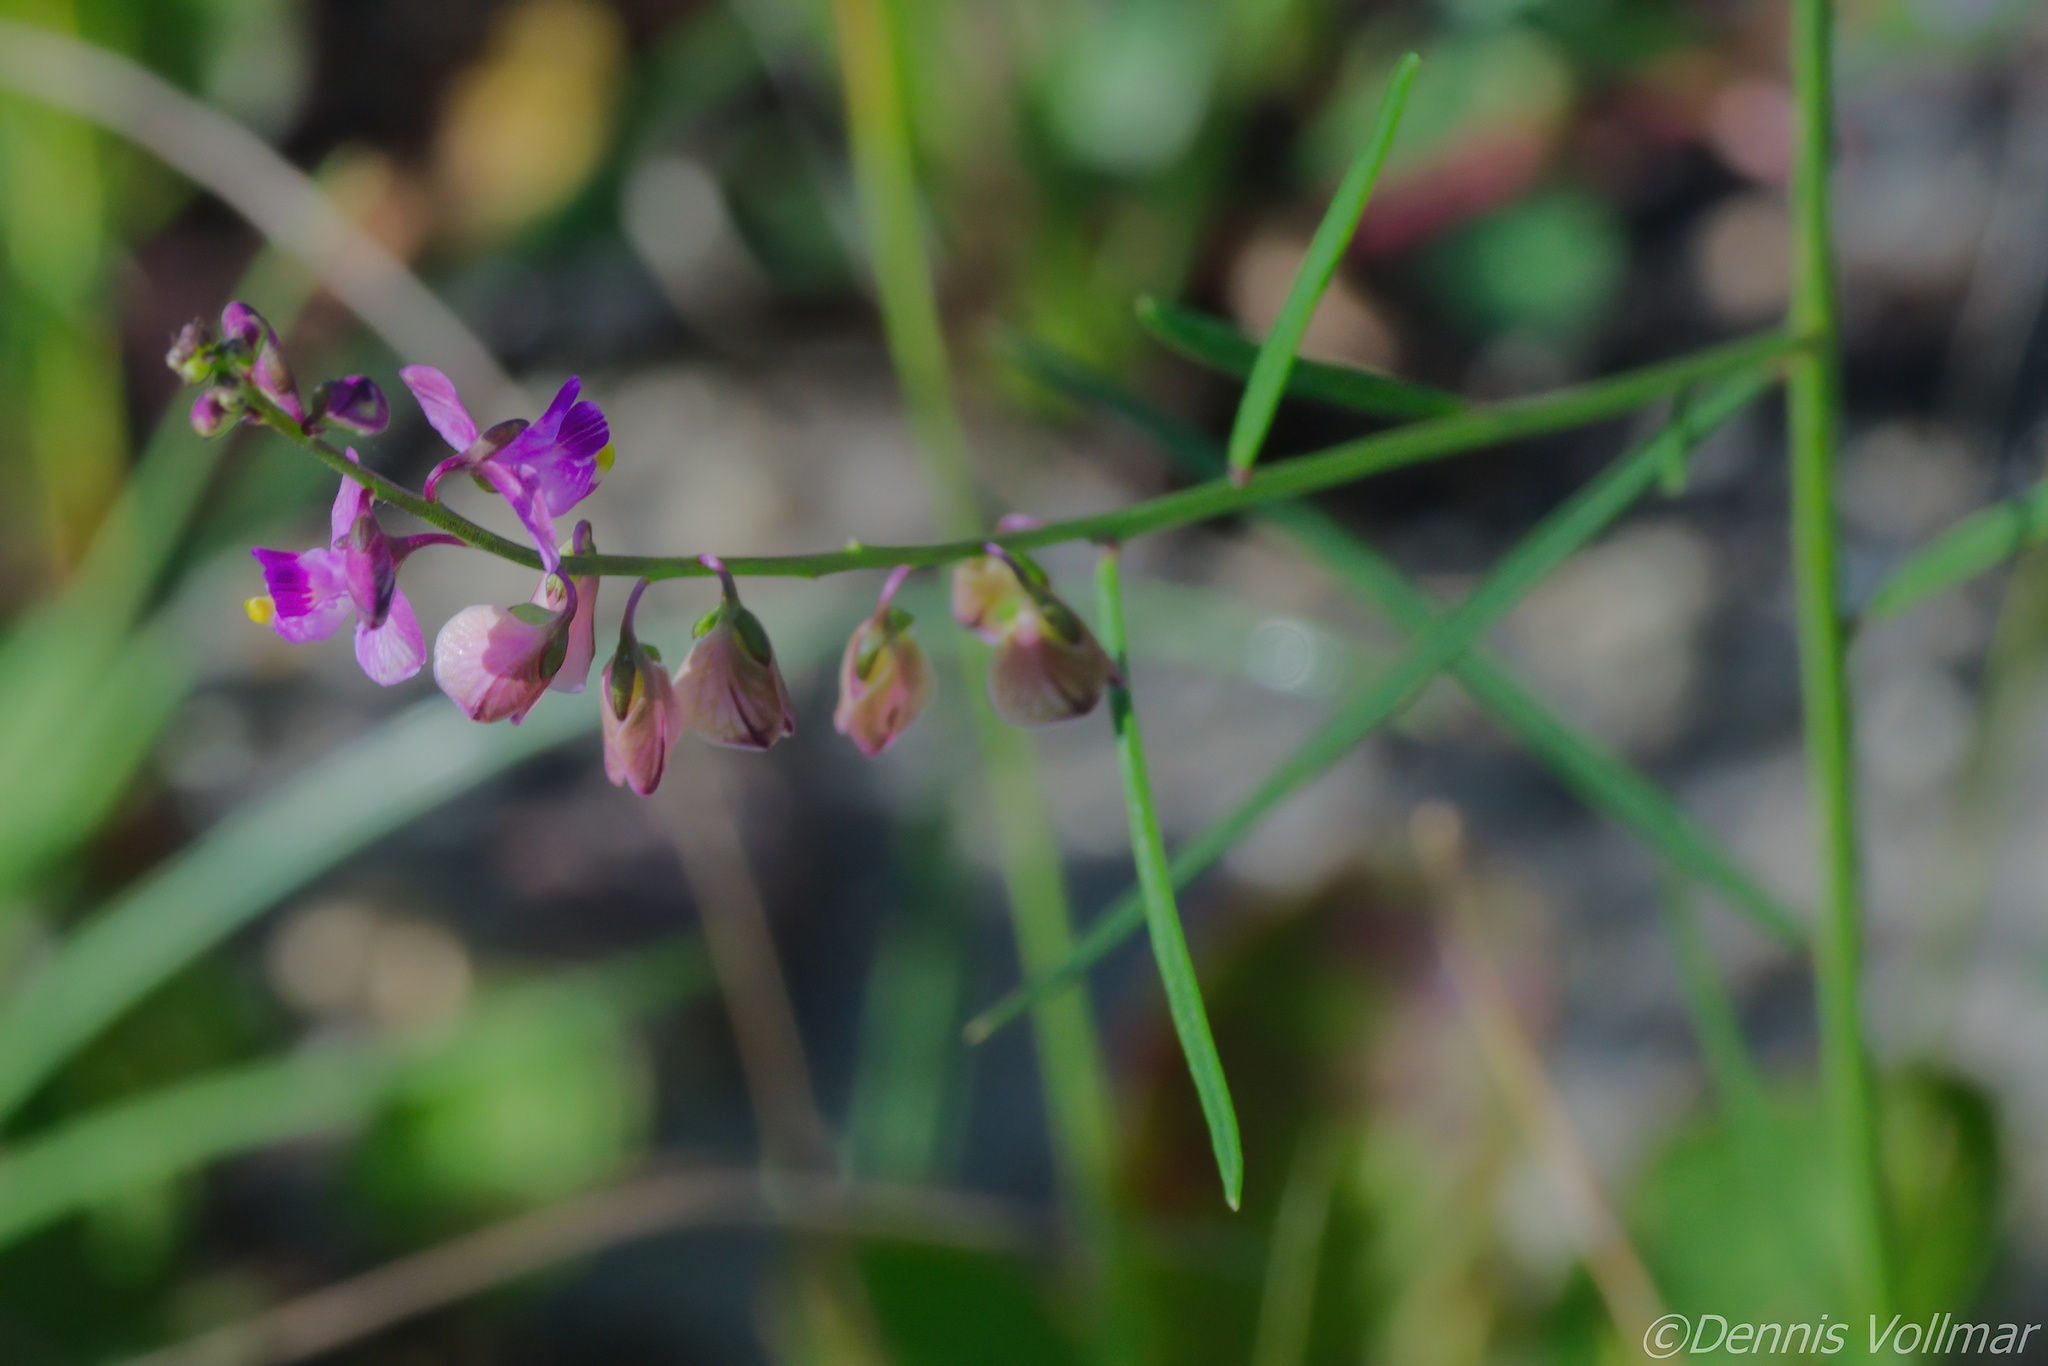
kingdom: Plantae
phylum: Tracheophyta
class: Magnoliopsida
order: Fabales
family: Polygalaceae
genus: Asemeia
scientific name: Asemeia grandiflora
